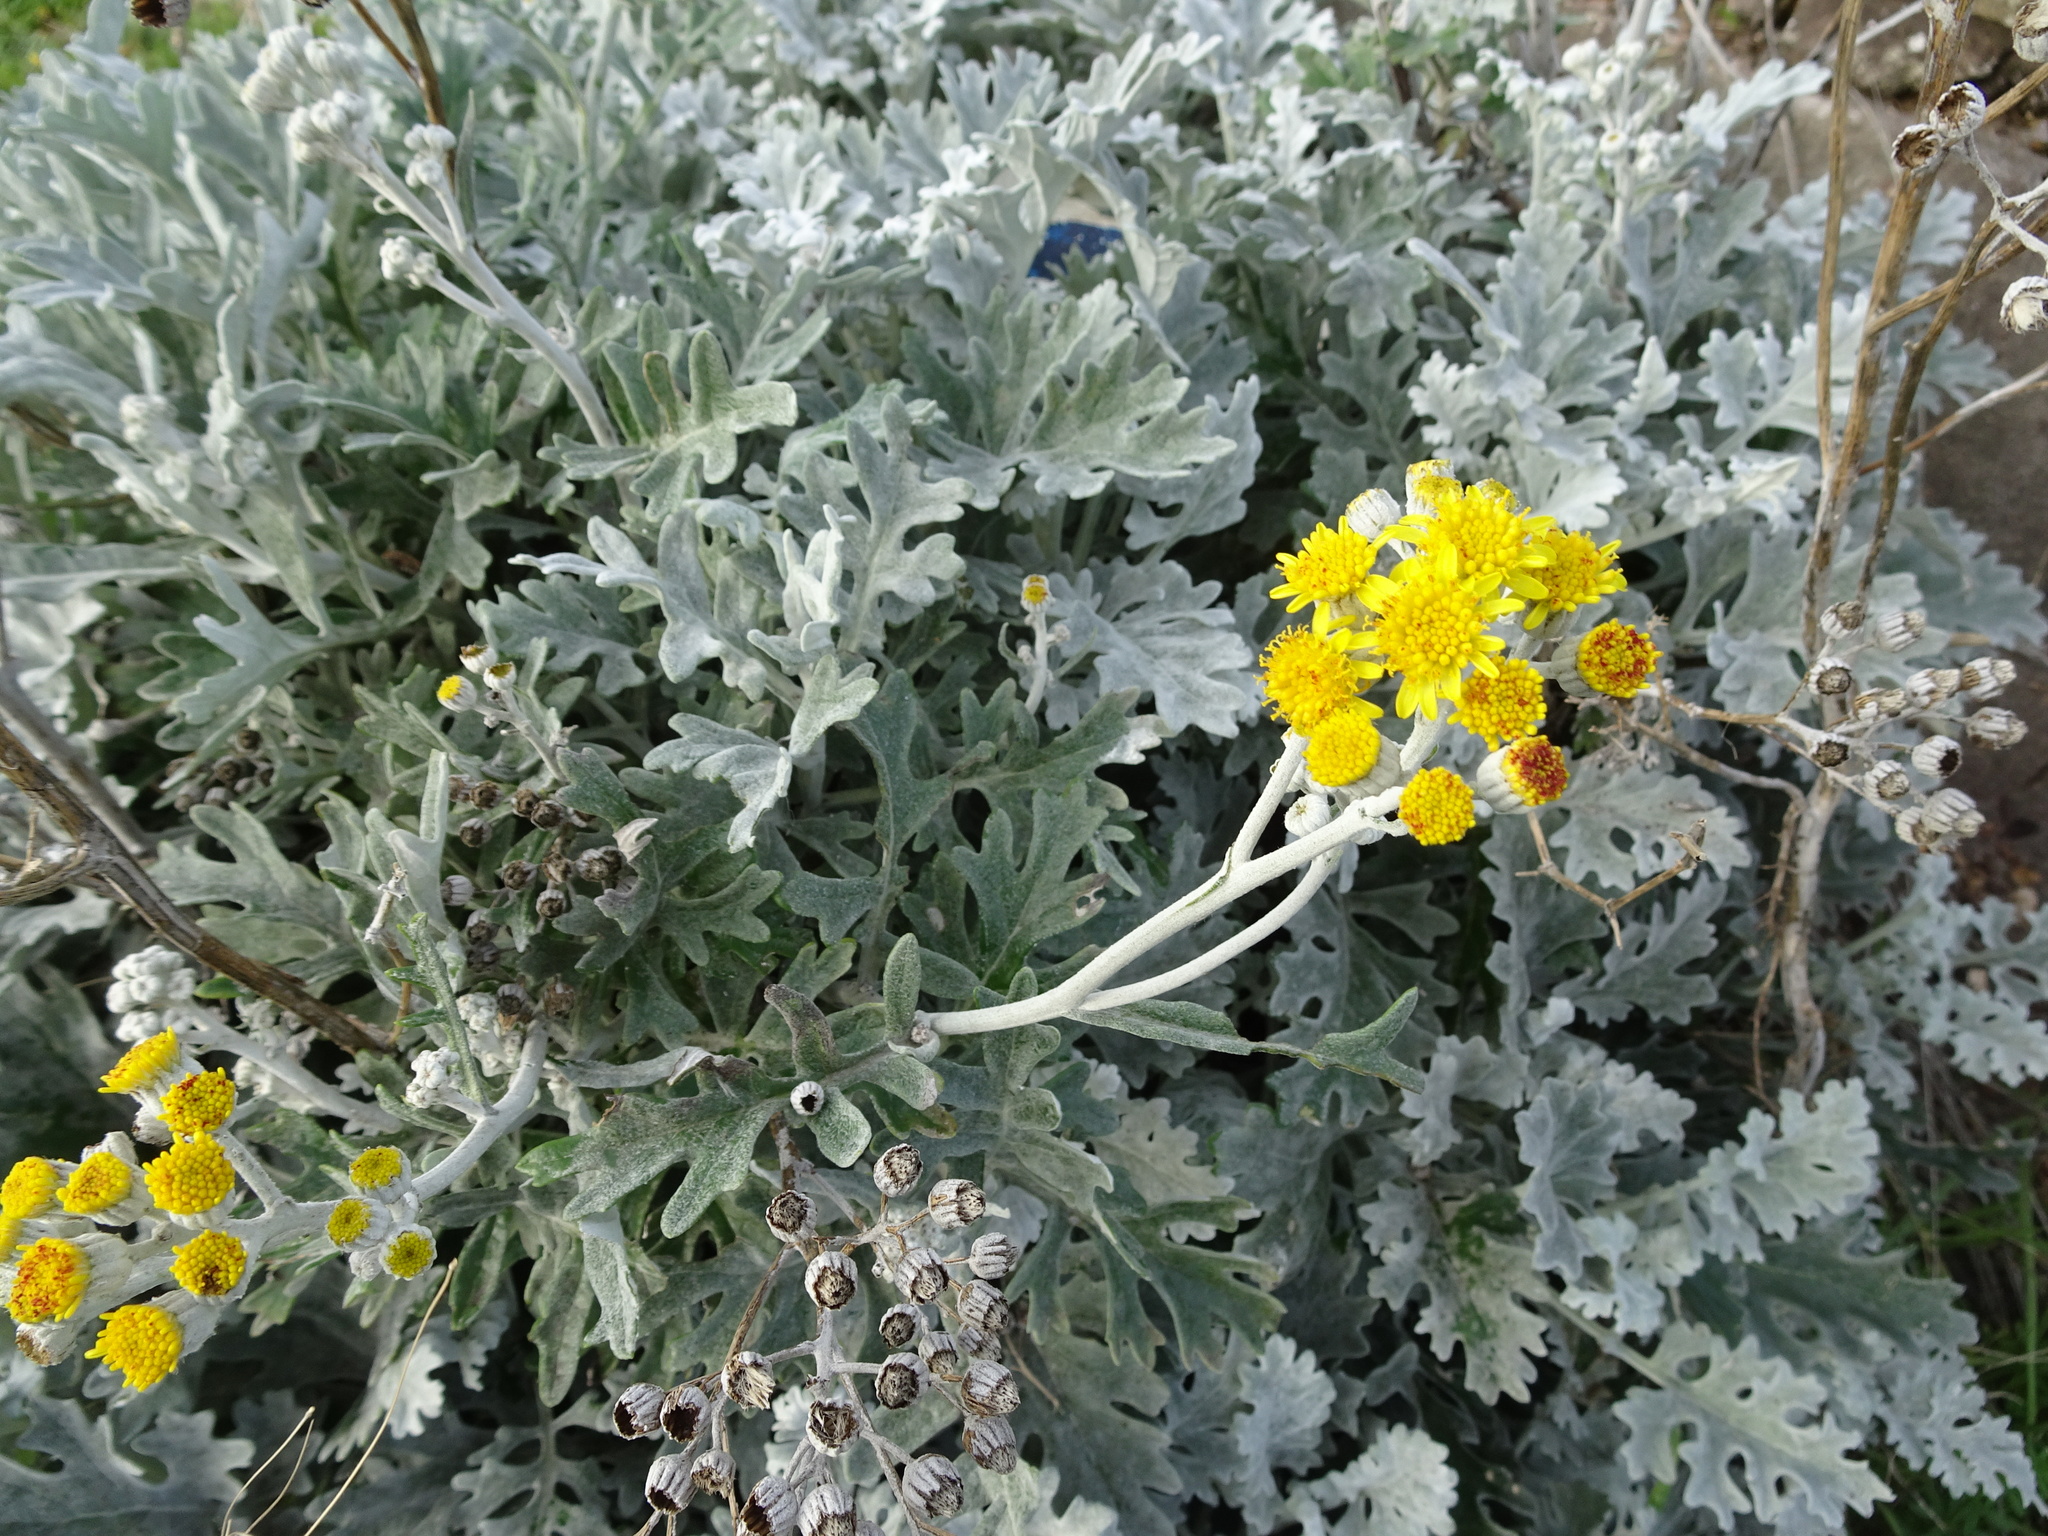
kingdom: Plantae
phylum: Tracheophyta
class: Magnoliopsida
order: Asterales
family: Asteraceae
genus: Jacobaea
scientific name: Jacobaea maritima
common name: Silver ragwort
